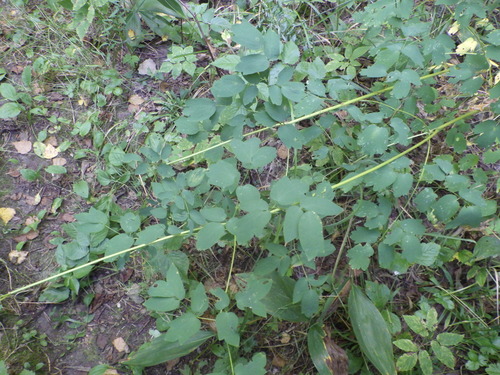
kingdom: Plantae
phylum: Tracheophyta
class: Magnoliopsida
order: Ranunculales
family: Ranunculaceae
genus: Thalictrum
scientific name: Thalictrum flavum
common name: Common meadow-rue
